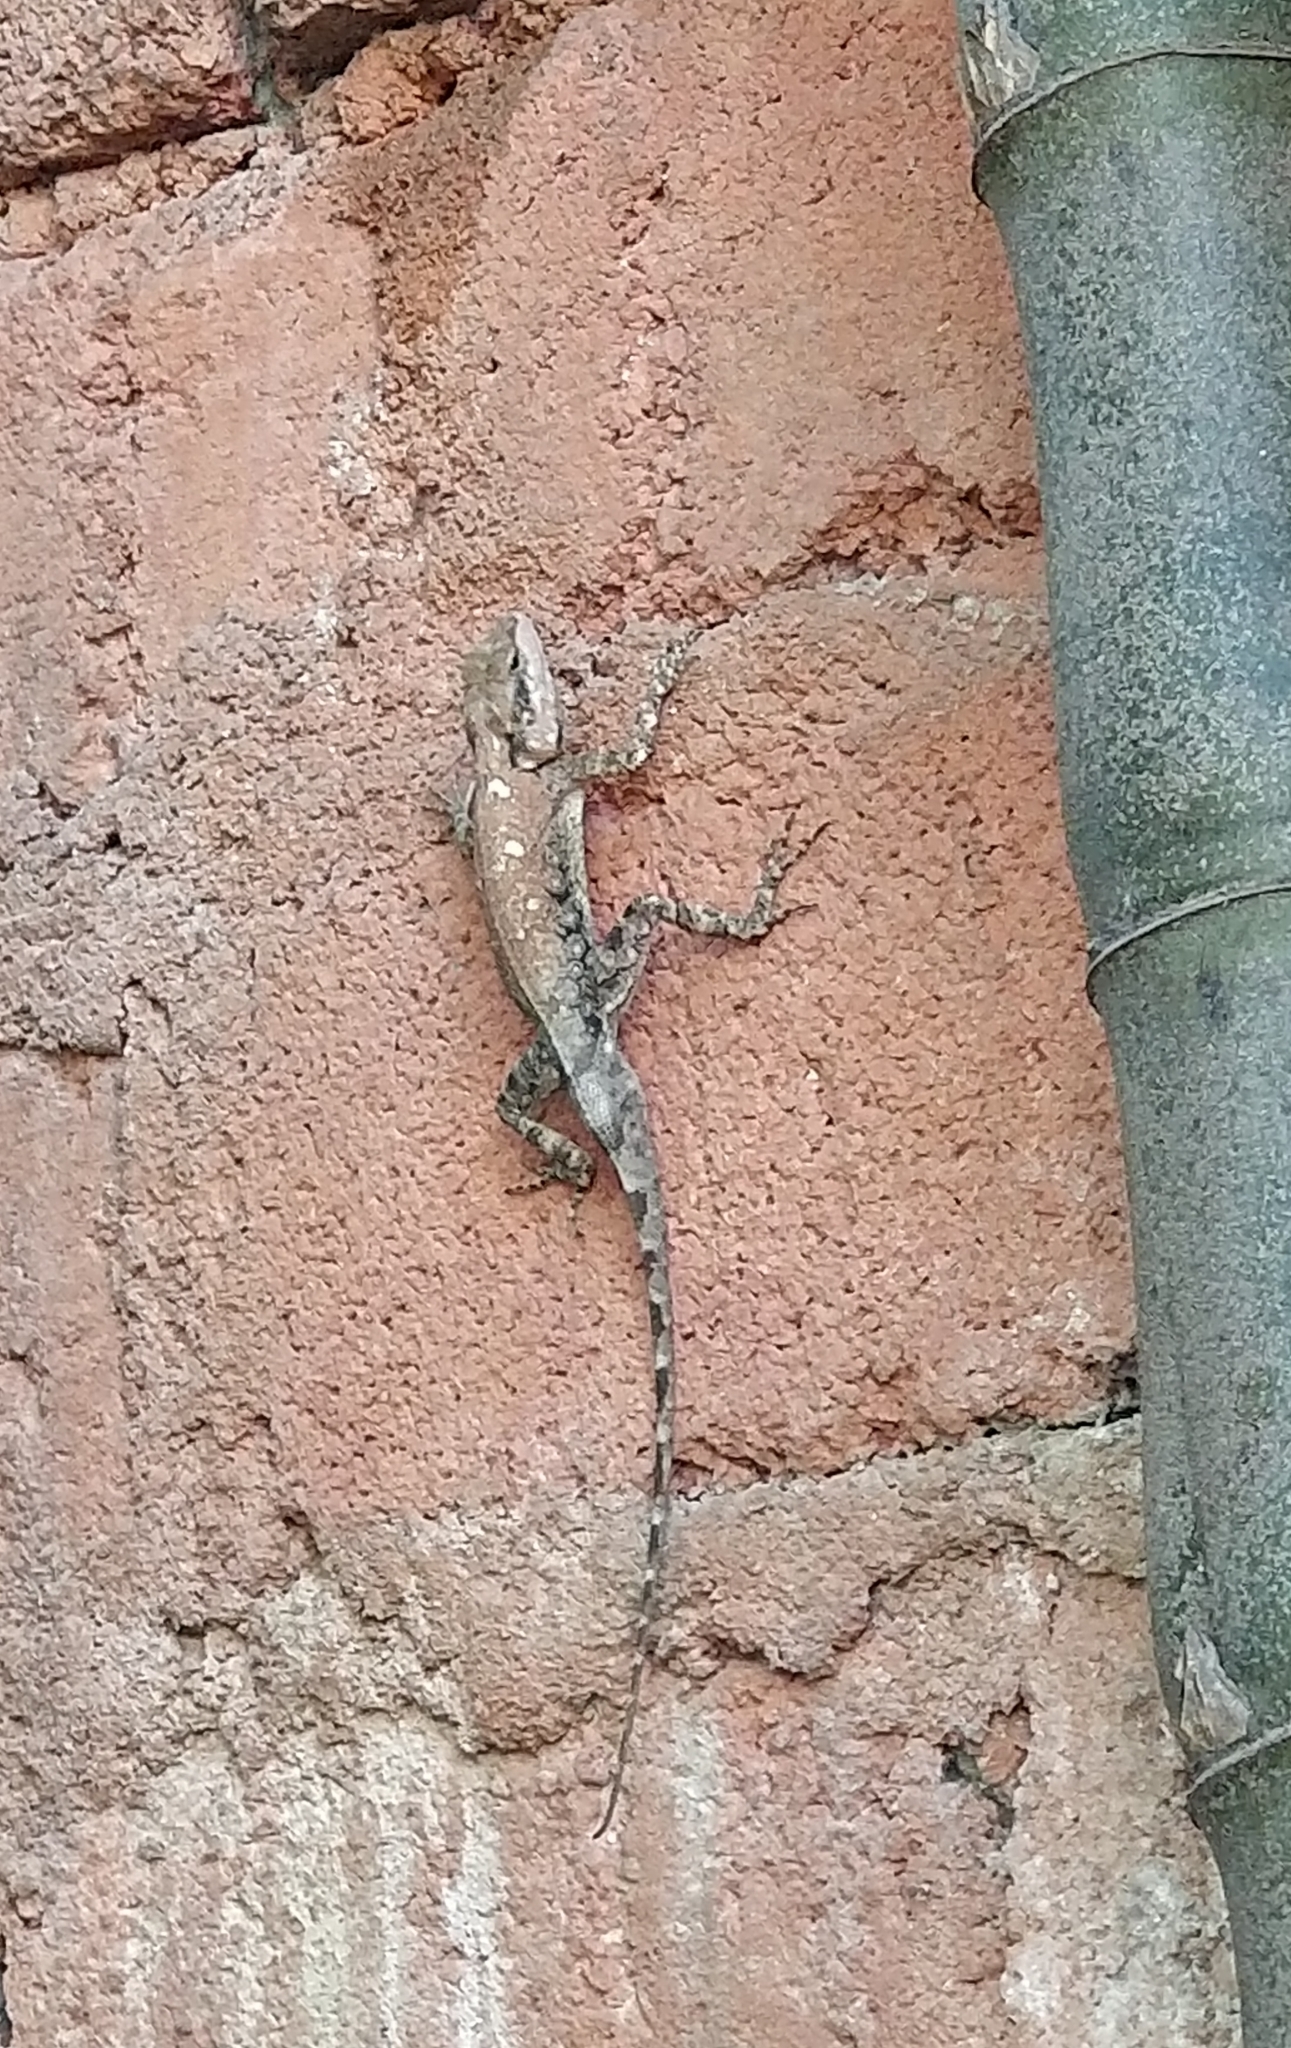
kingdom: Animalia
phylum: Chordata
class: Squamata
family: Agamidae
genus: Psammophilus
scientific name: Psammophilus dorsalis
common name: South indian rock agama
